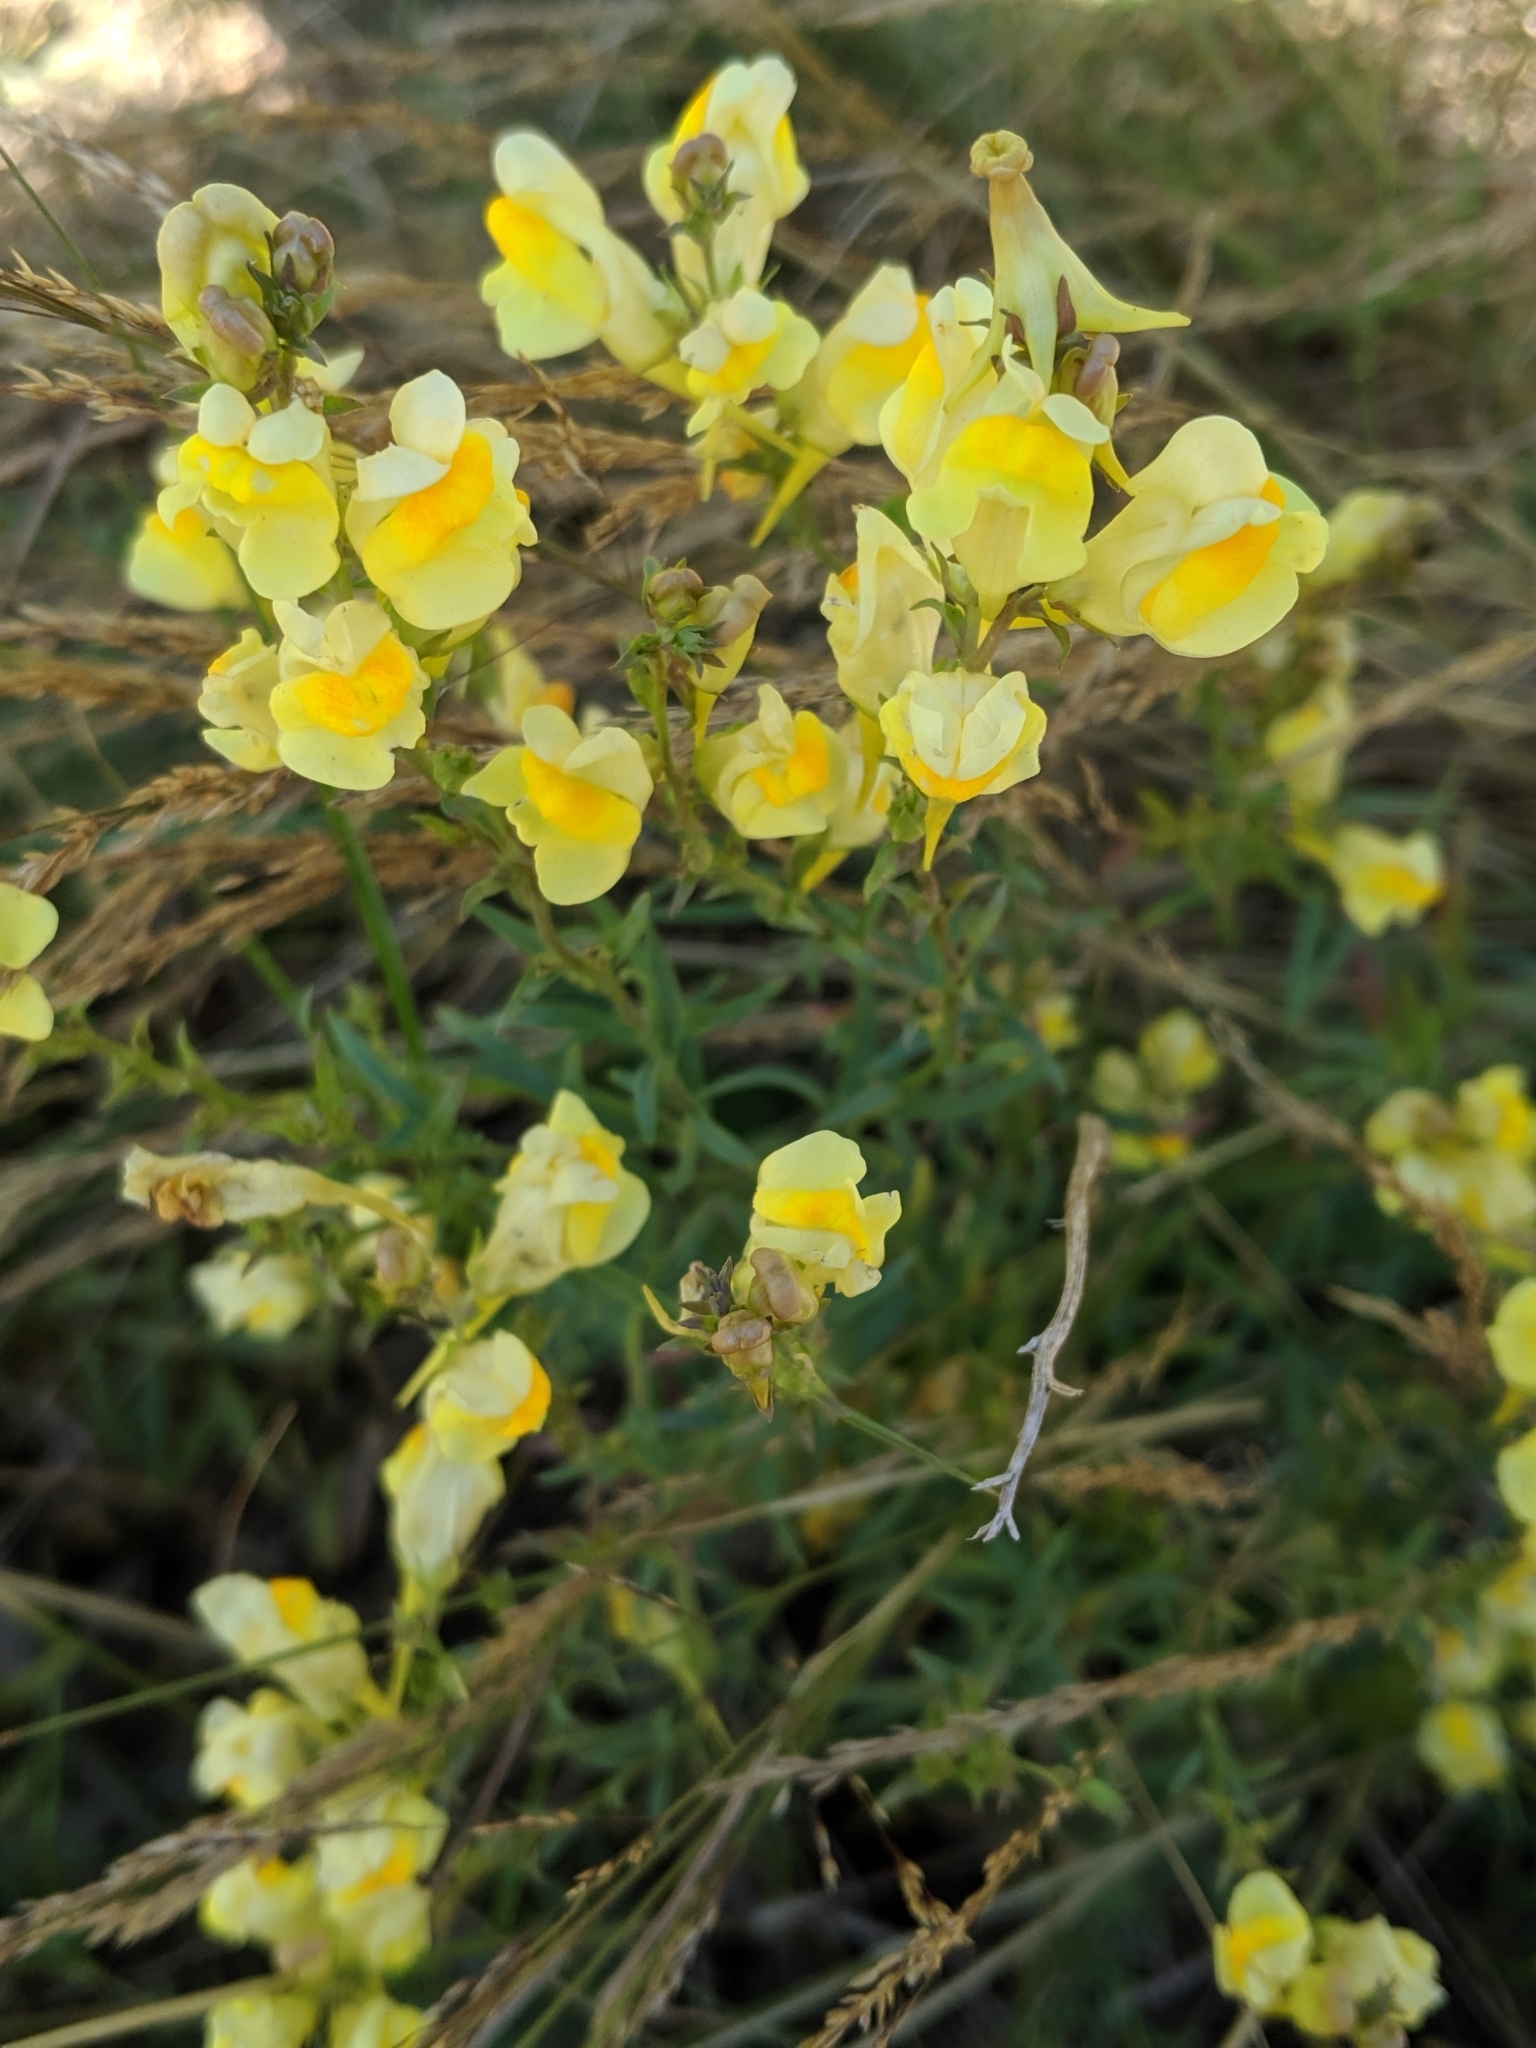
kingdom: Plantae
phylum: Tracheophyta
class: Magnoliopsida
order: Lamiales
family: Plantaginaceae
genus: Linaria
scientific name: Linaria vulgaris
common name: Butter and eggs
